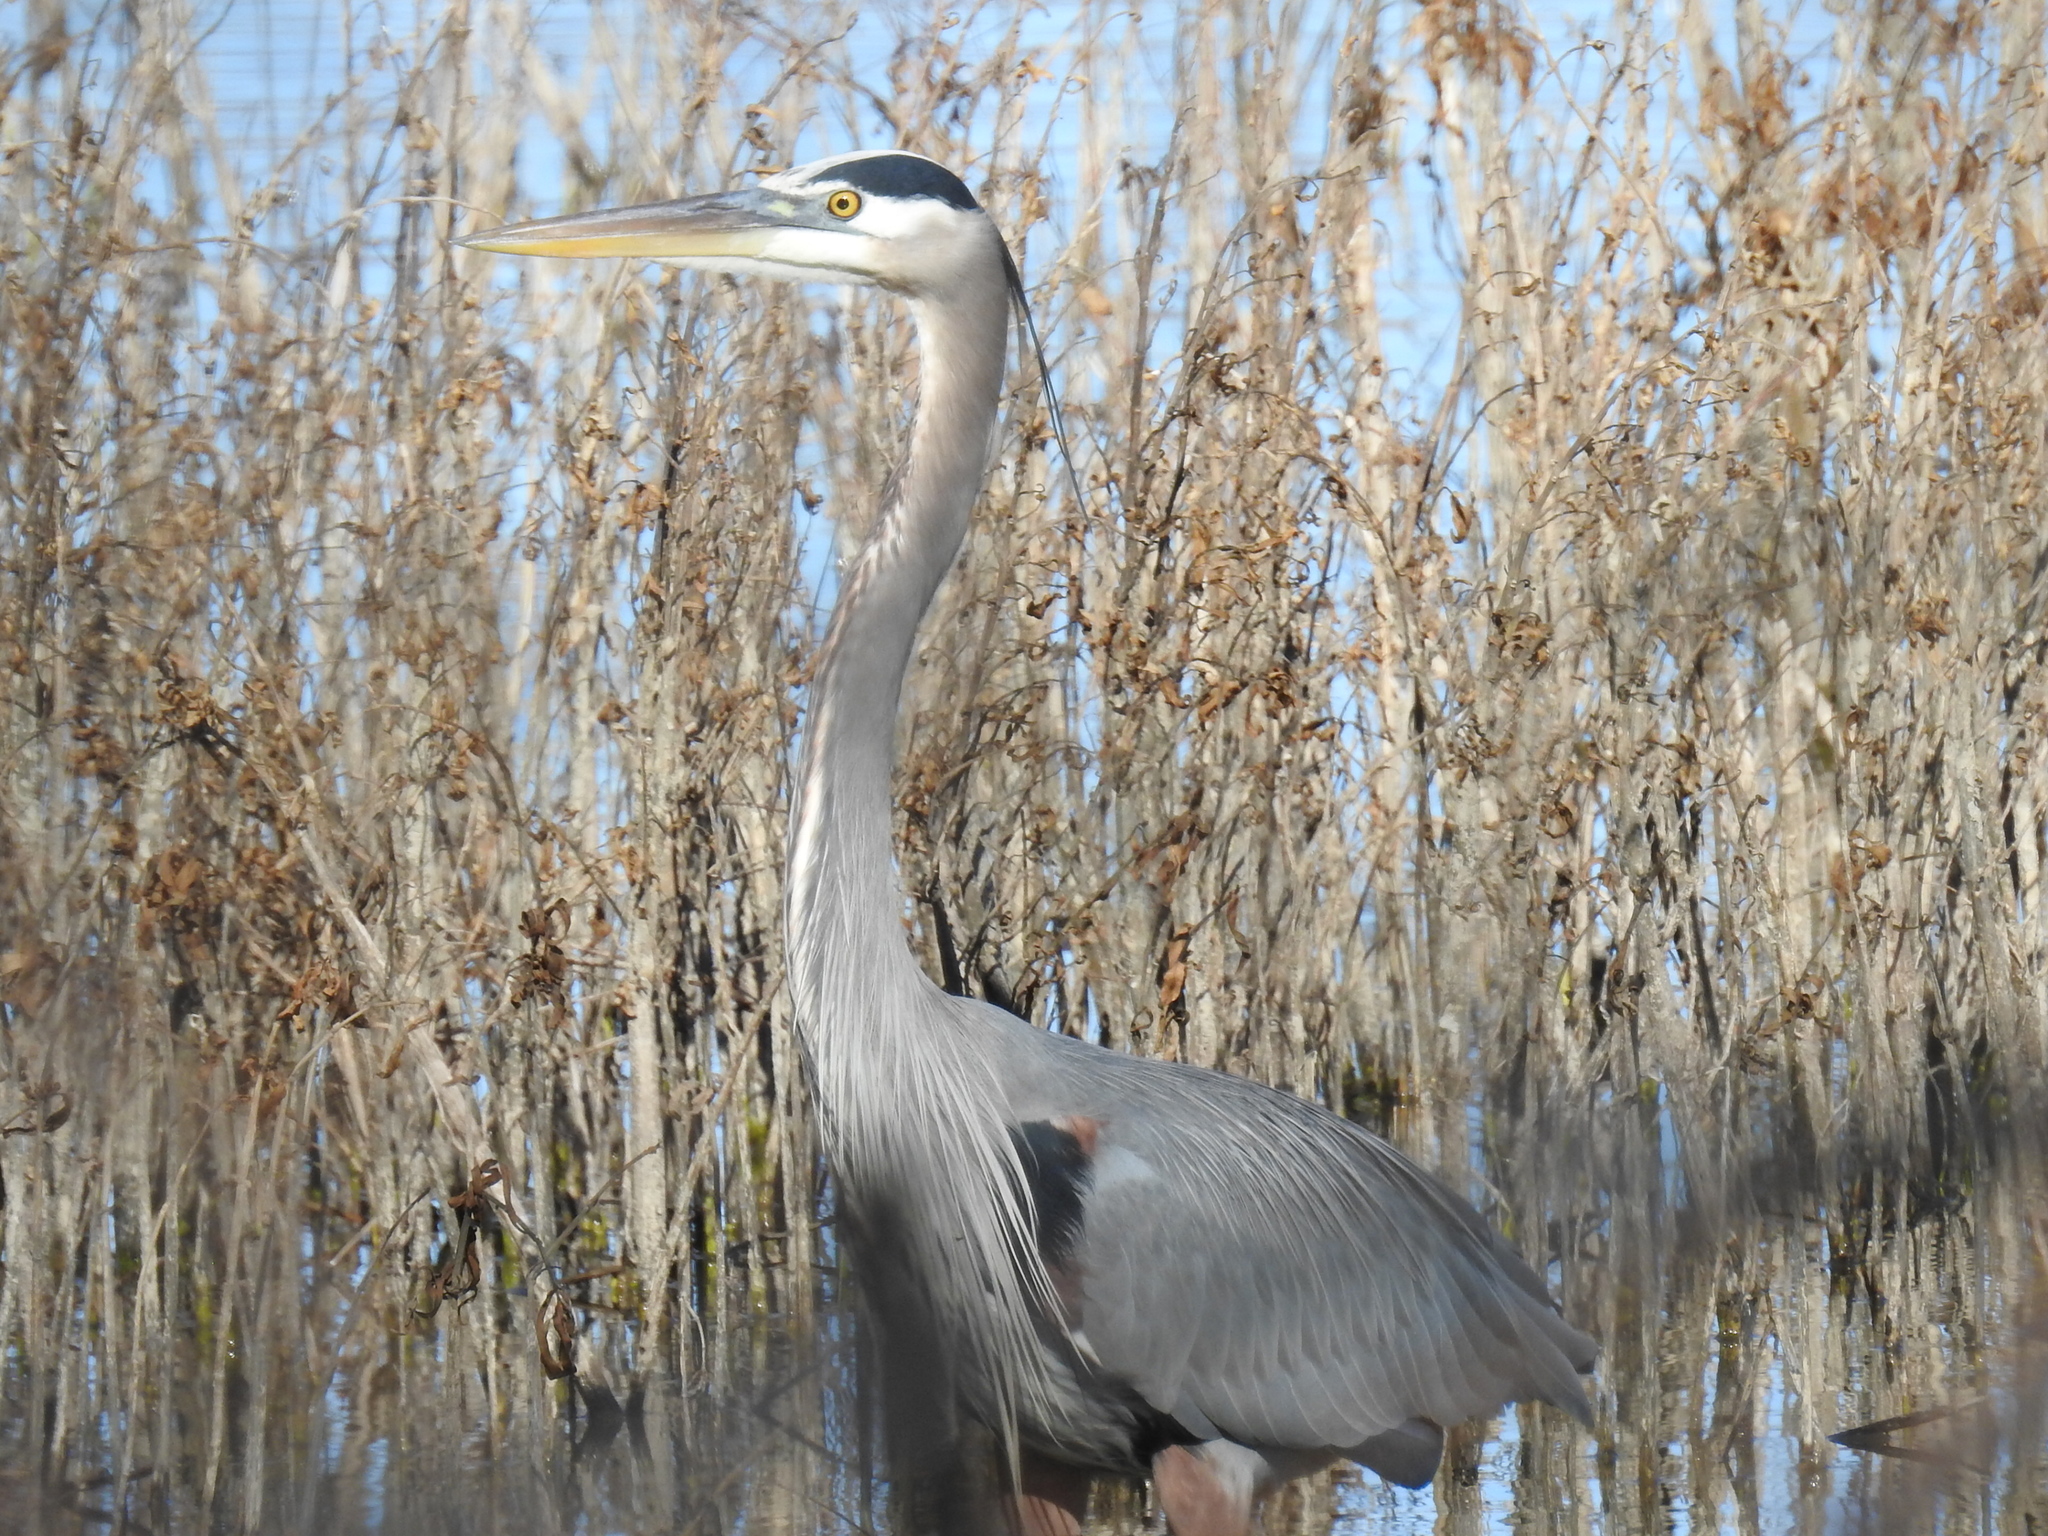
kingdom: Animalia
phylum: Chordata
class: Aves
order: Pelecaniformes
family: Ardeidae
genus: Ardea
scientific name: Ardea herodias
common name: Great blue heron
